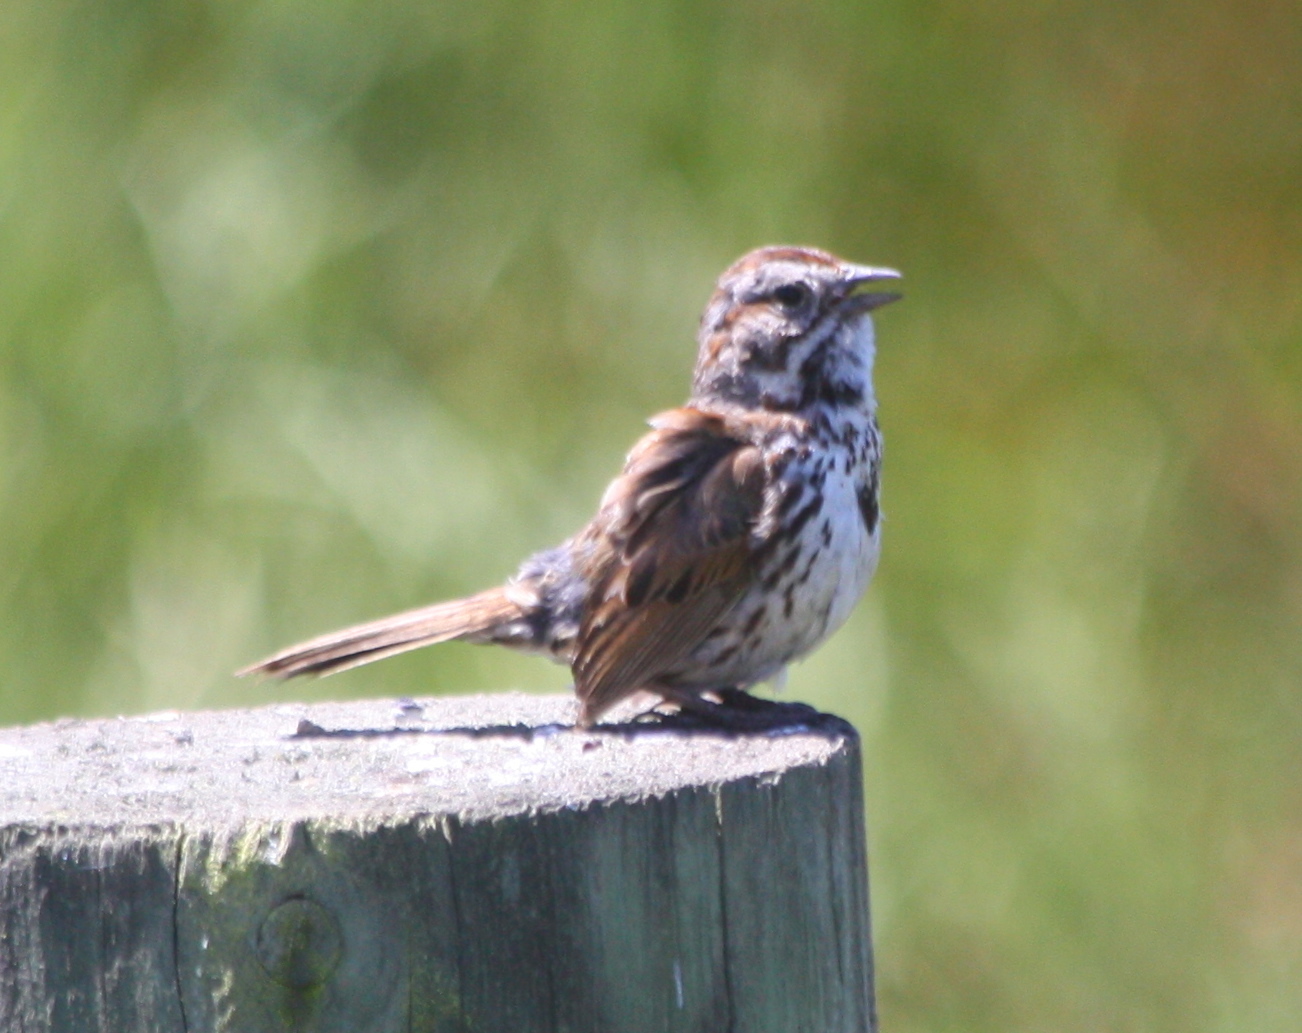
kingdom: Animalia
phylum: Chordata
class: Aves
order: Passeriformes
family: Passerellidae
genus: Melospiza
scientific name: Melospiza melodia
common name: Song sparrow
